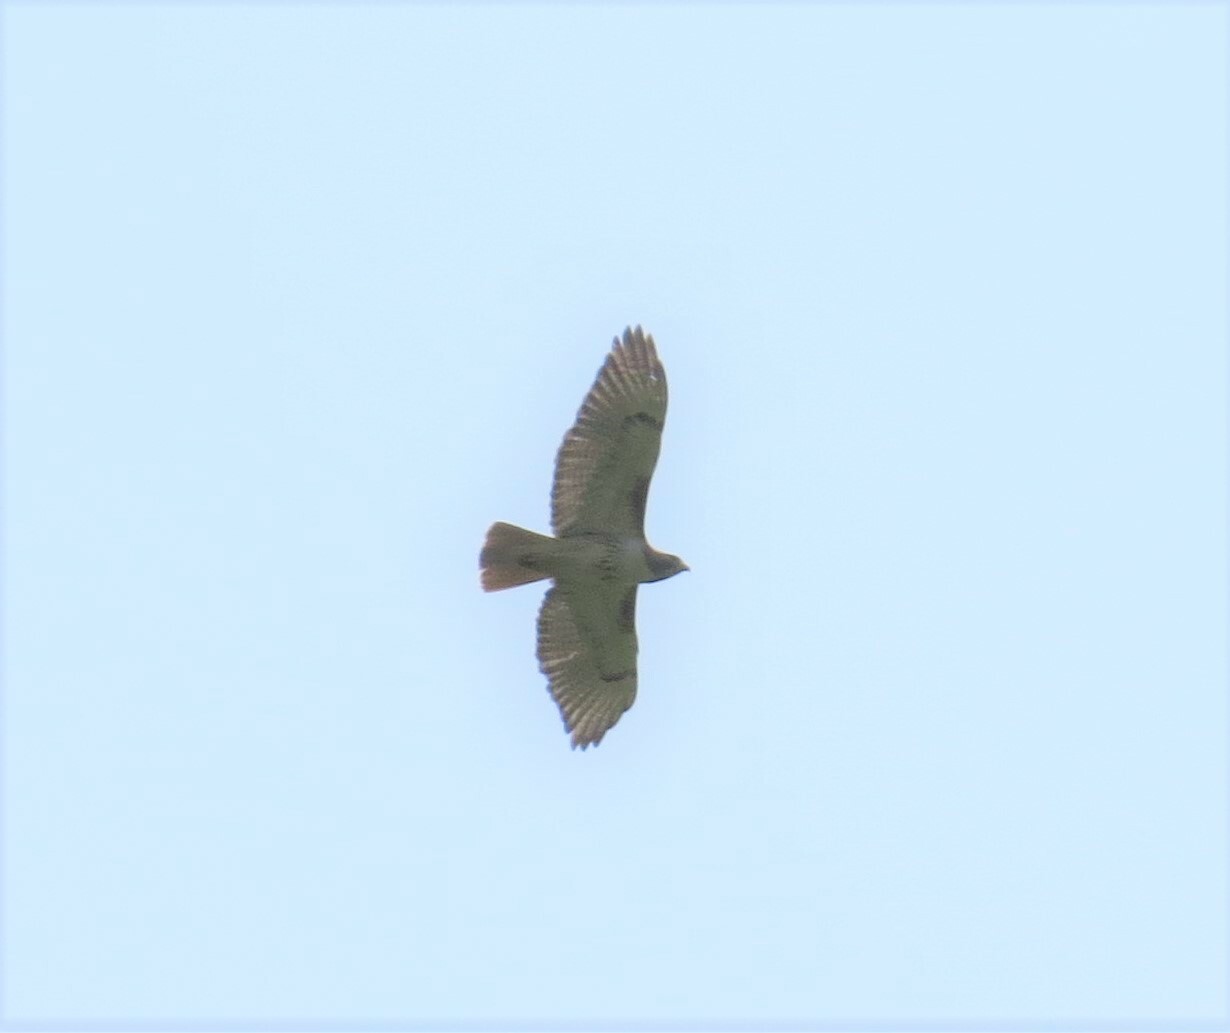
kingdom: Animalia
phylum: Chordata
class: Aves
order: Accipitriformes
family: Accipitridae
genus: Buteo
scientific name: Buteo jamaicensis
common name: Red-tailed hawk
